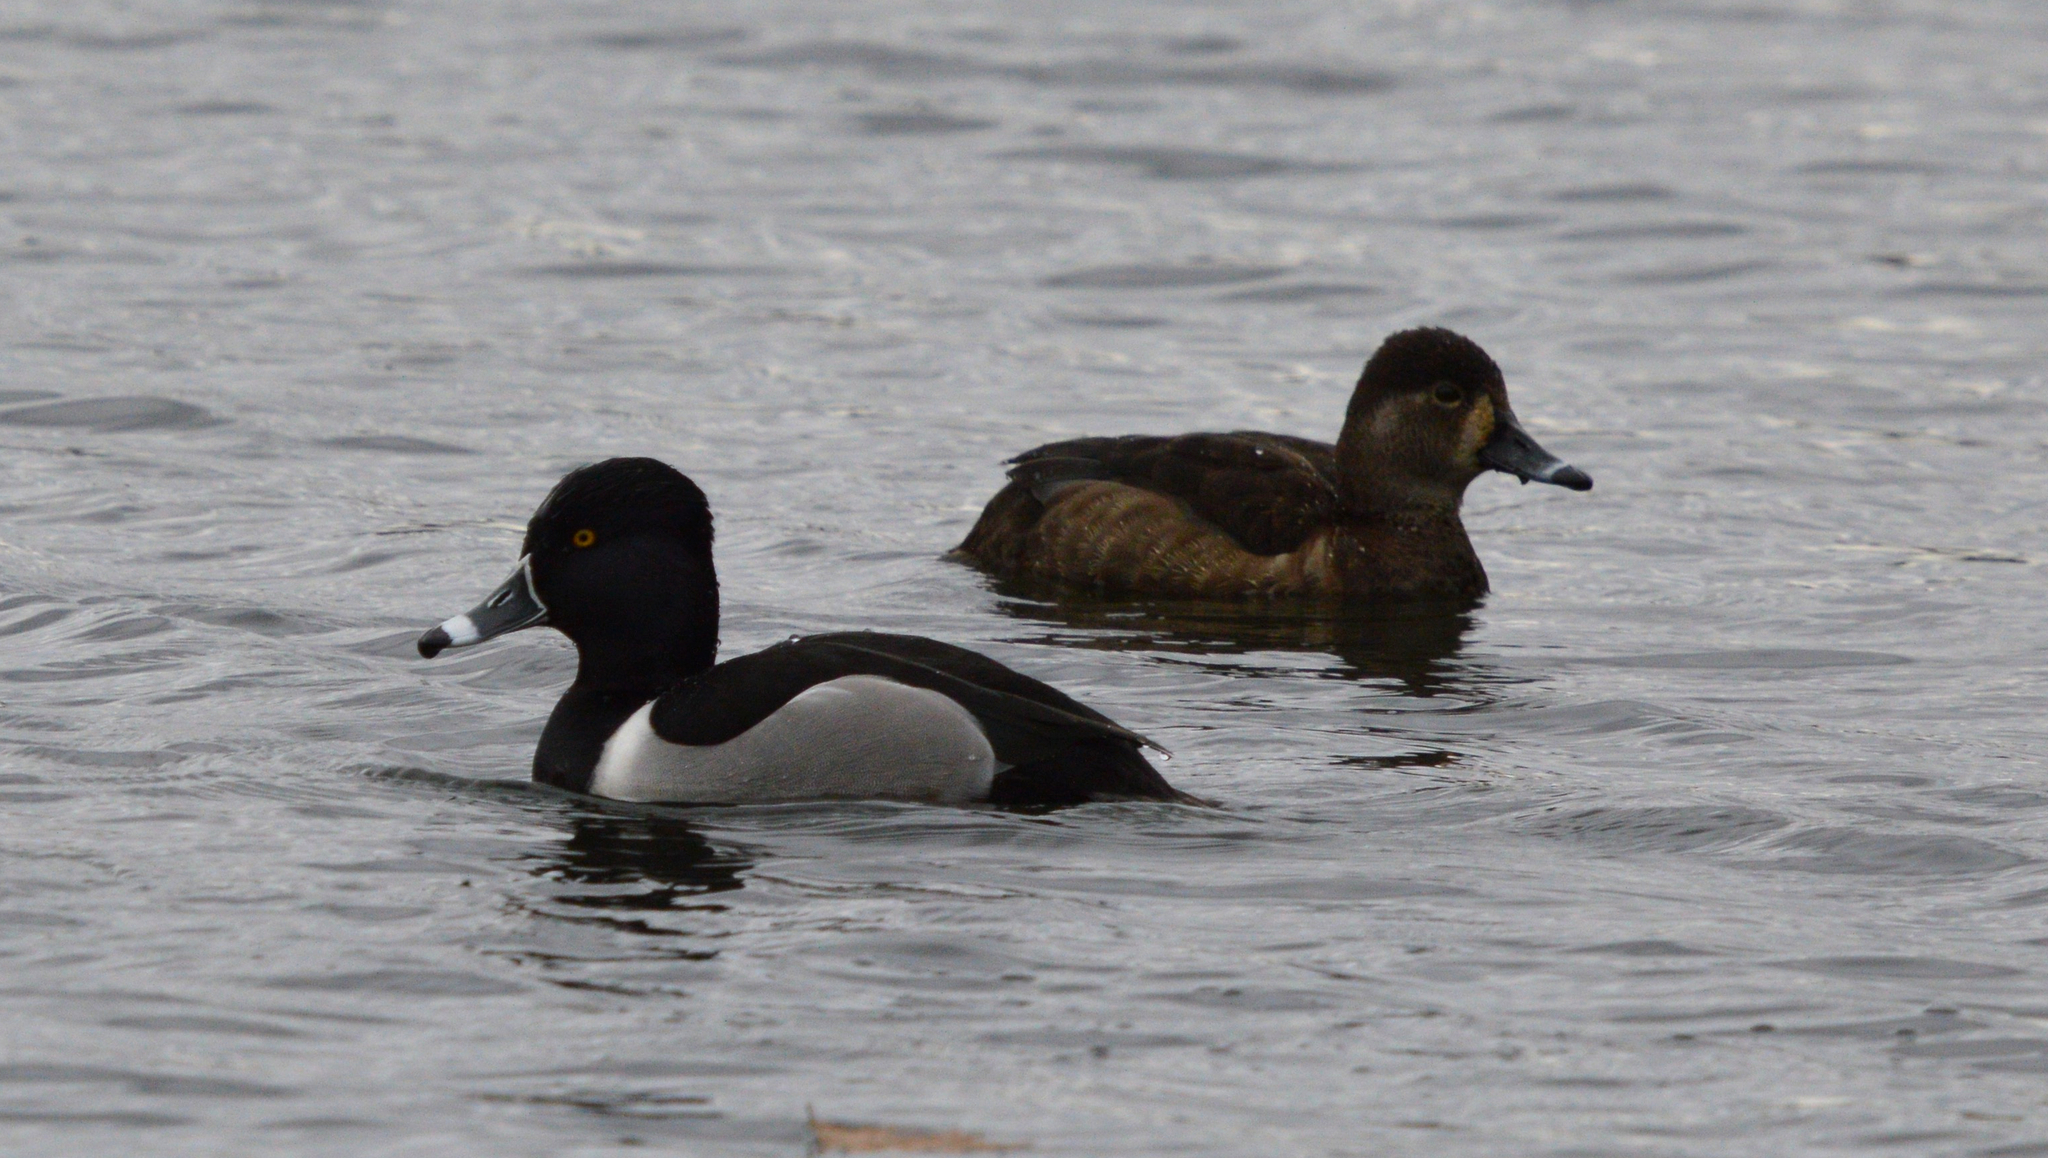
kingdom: Animalia
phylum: Chordata
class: Aves
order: Anseriformes
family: Anatidae
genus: Aythya
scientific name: Aythya collaris
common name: Ring-necked duck
